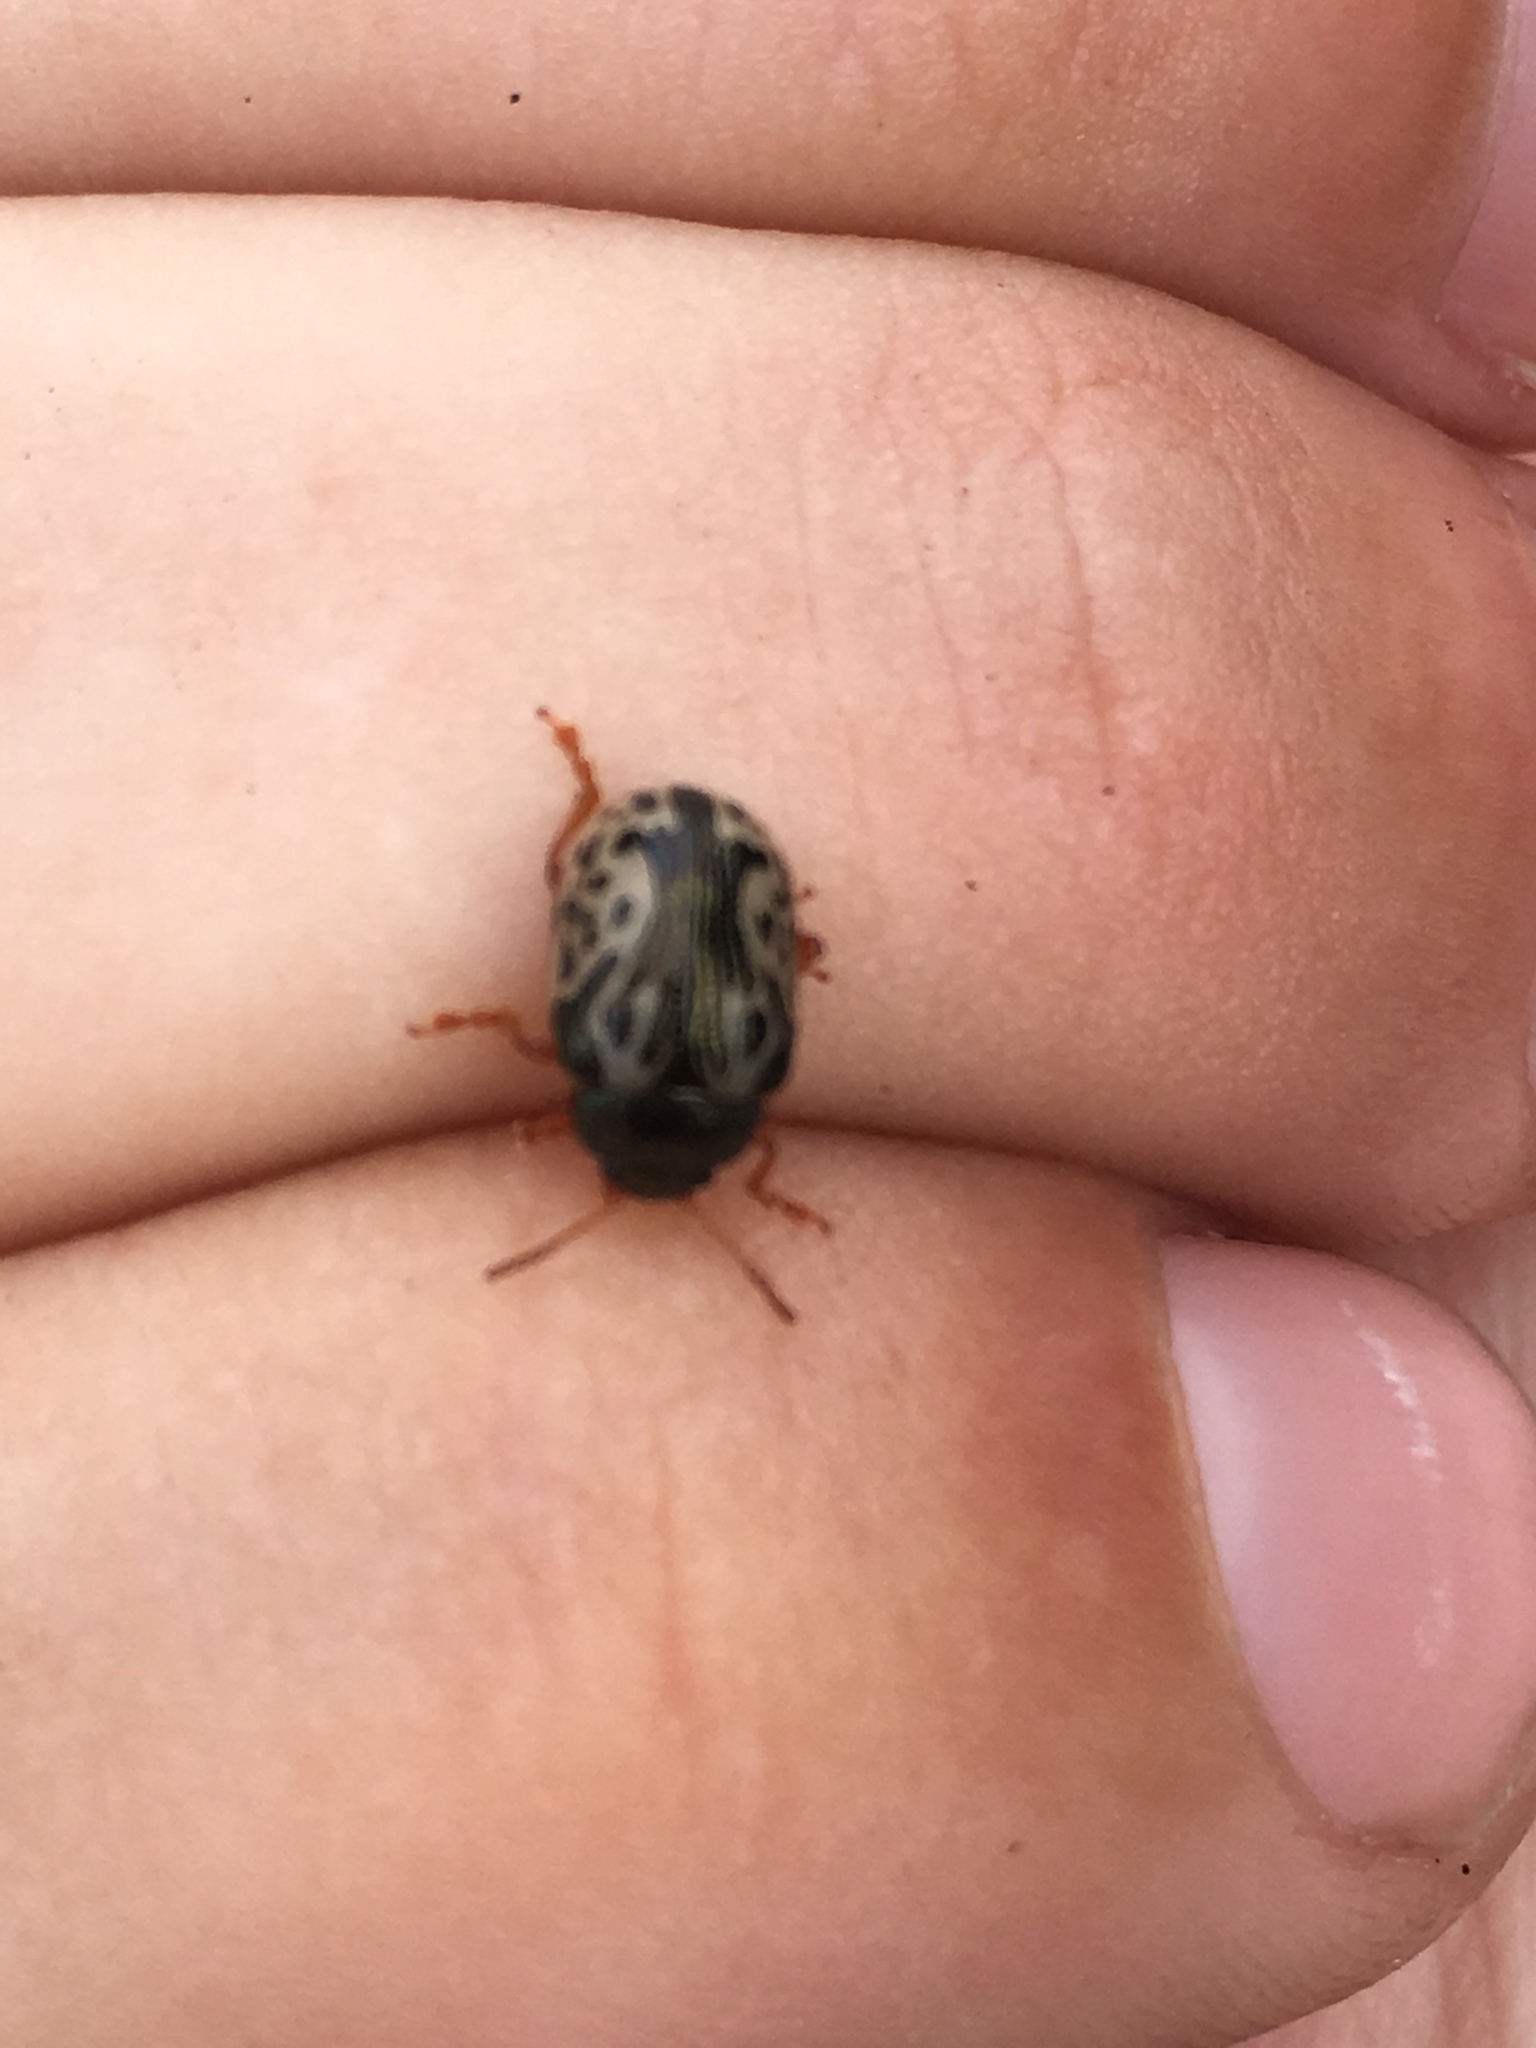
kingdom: Animalia
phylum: Arthropoda
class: Insecta
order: Coleoptera
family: Chrysomelidae
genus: Calligrapha
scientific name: Calligrapha confluens
